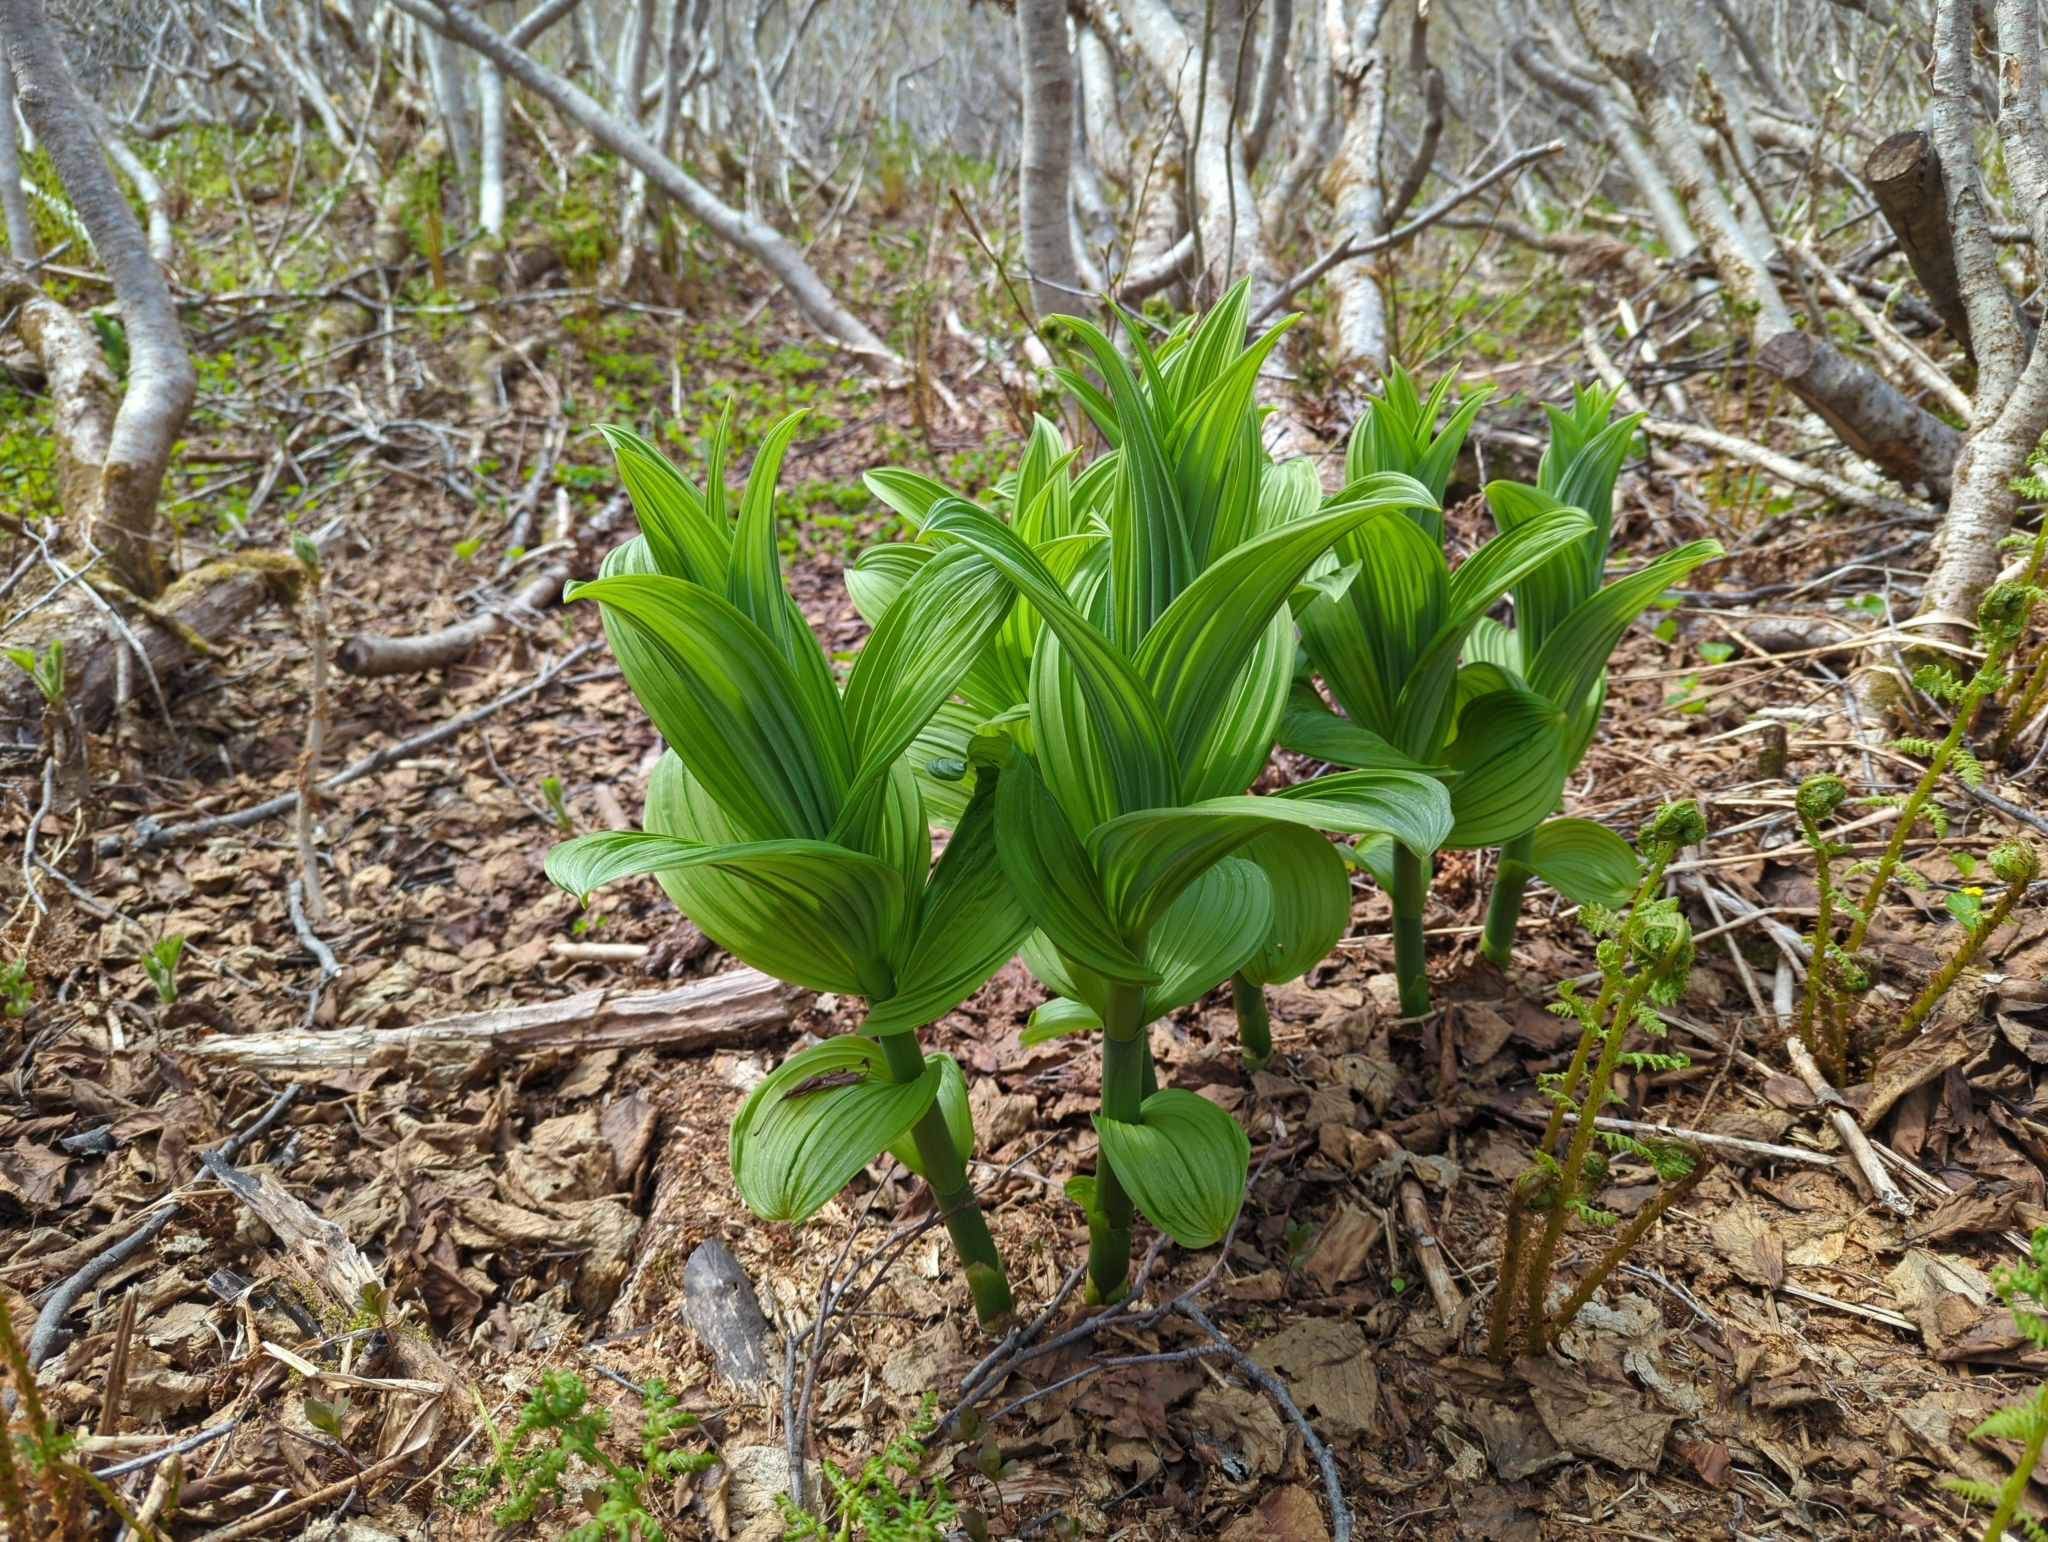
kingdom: Plantae
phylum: Tracheophyta
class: Liliopsida
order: Liliales
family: Melanthiaceae
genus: Veratrum
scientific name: Veratrum viride
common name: American false hellebore
